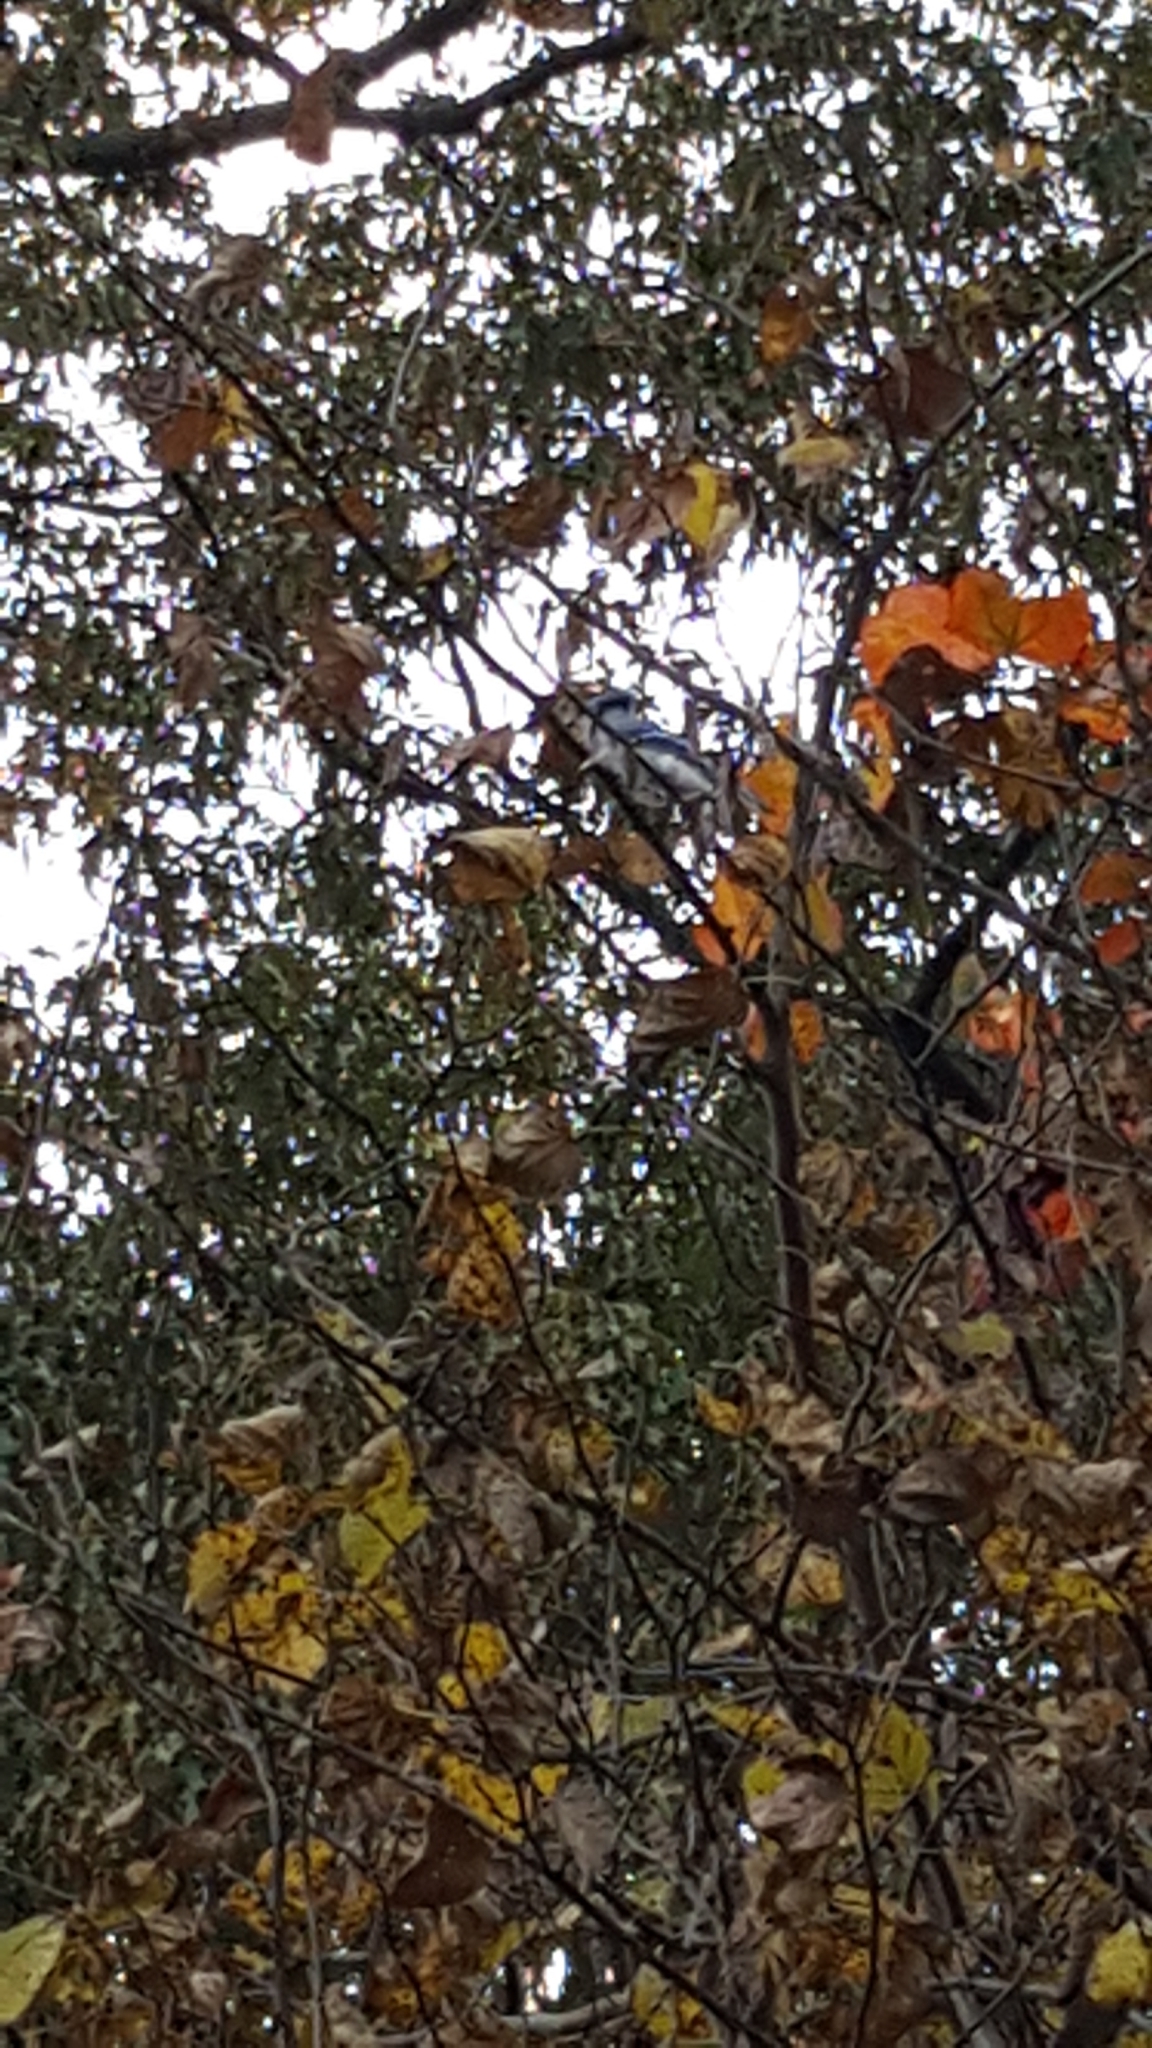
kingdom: Animalia
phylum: Chordata
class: Aves
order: Passeriformes
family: Corvidae
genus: Cyanocitta
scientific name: Cyanocitta cristata
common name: Blue jay
